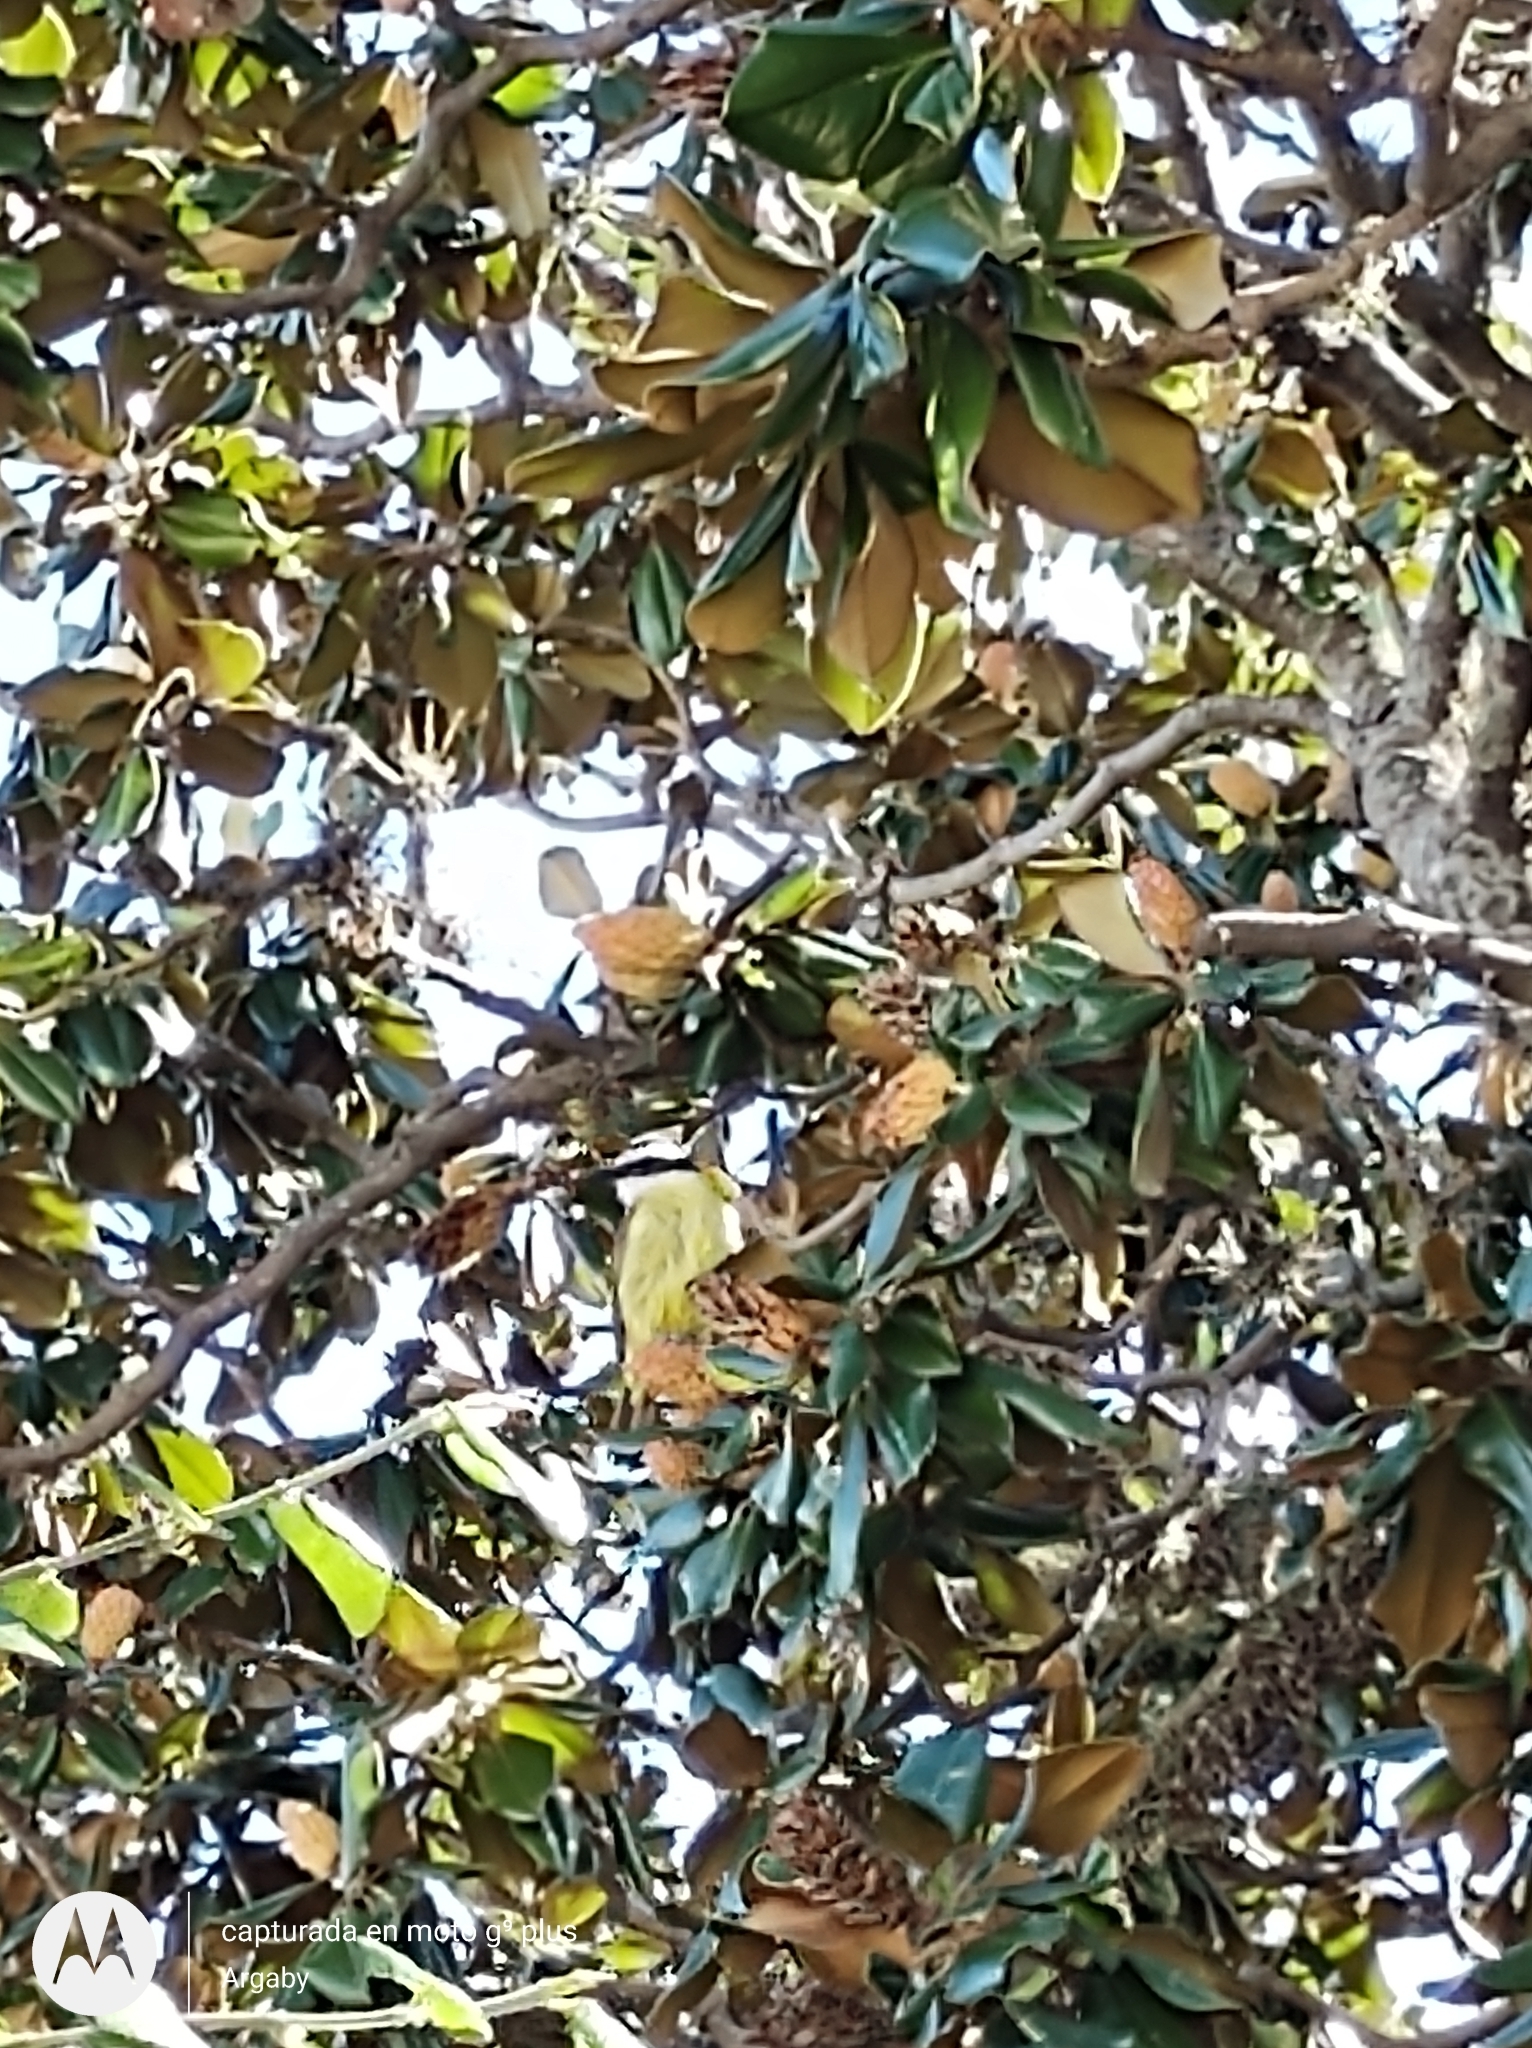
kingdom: Animalia
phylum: Chordata
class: Aves
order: Passeriformes
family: Tyrannidae
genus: Pitangus
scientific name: Pitangus sulphuratus
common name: Great kiskadee
